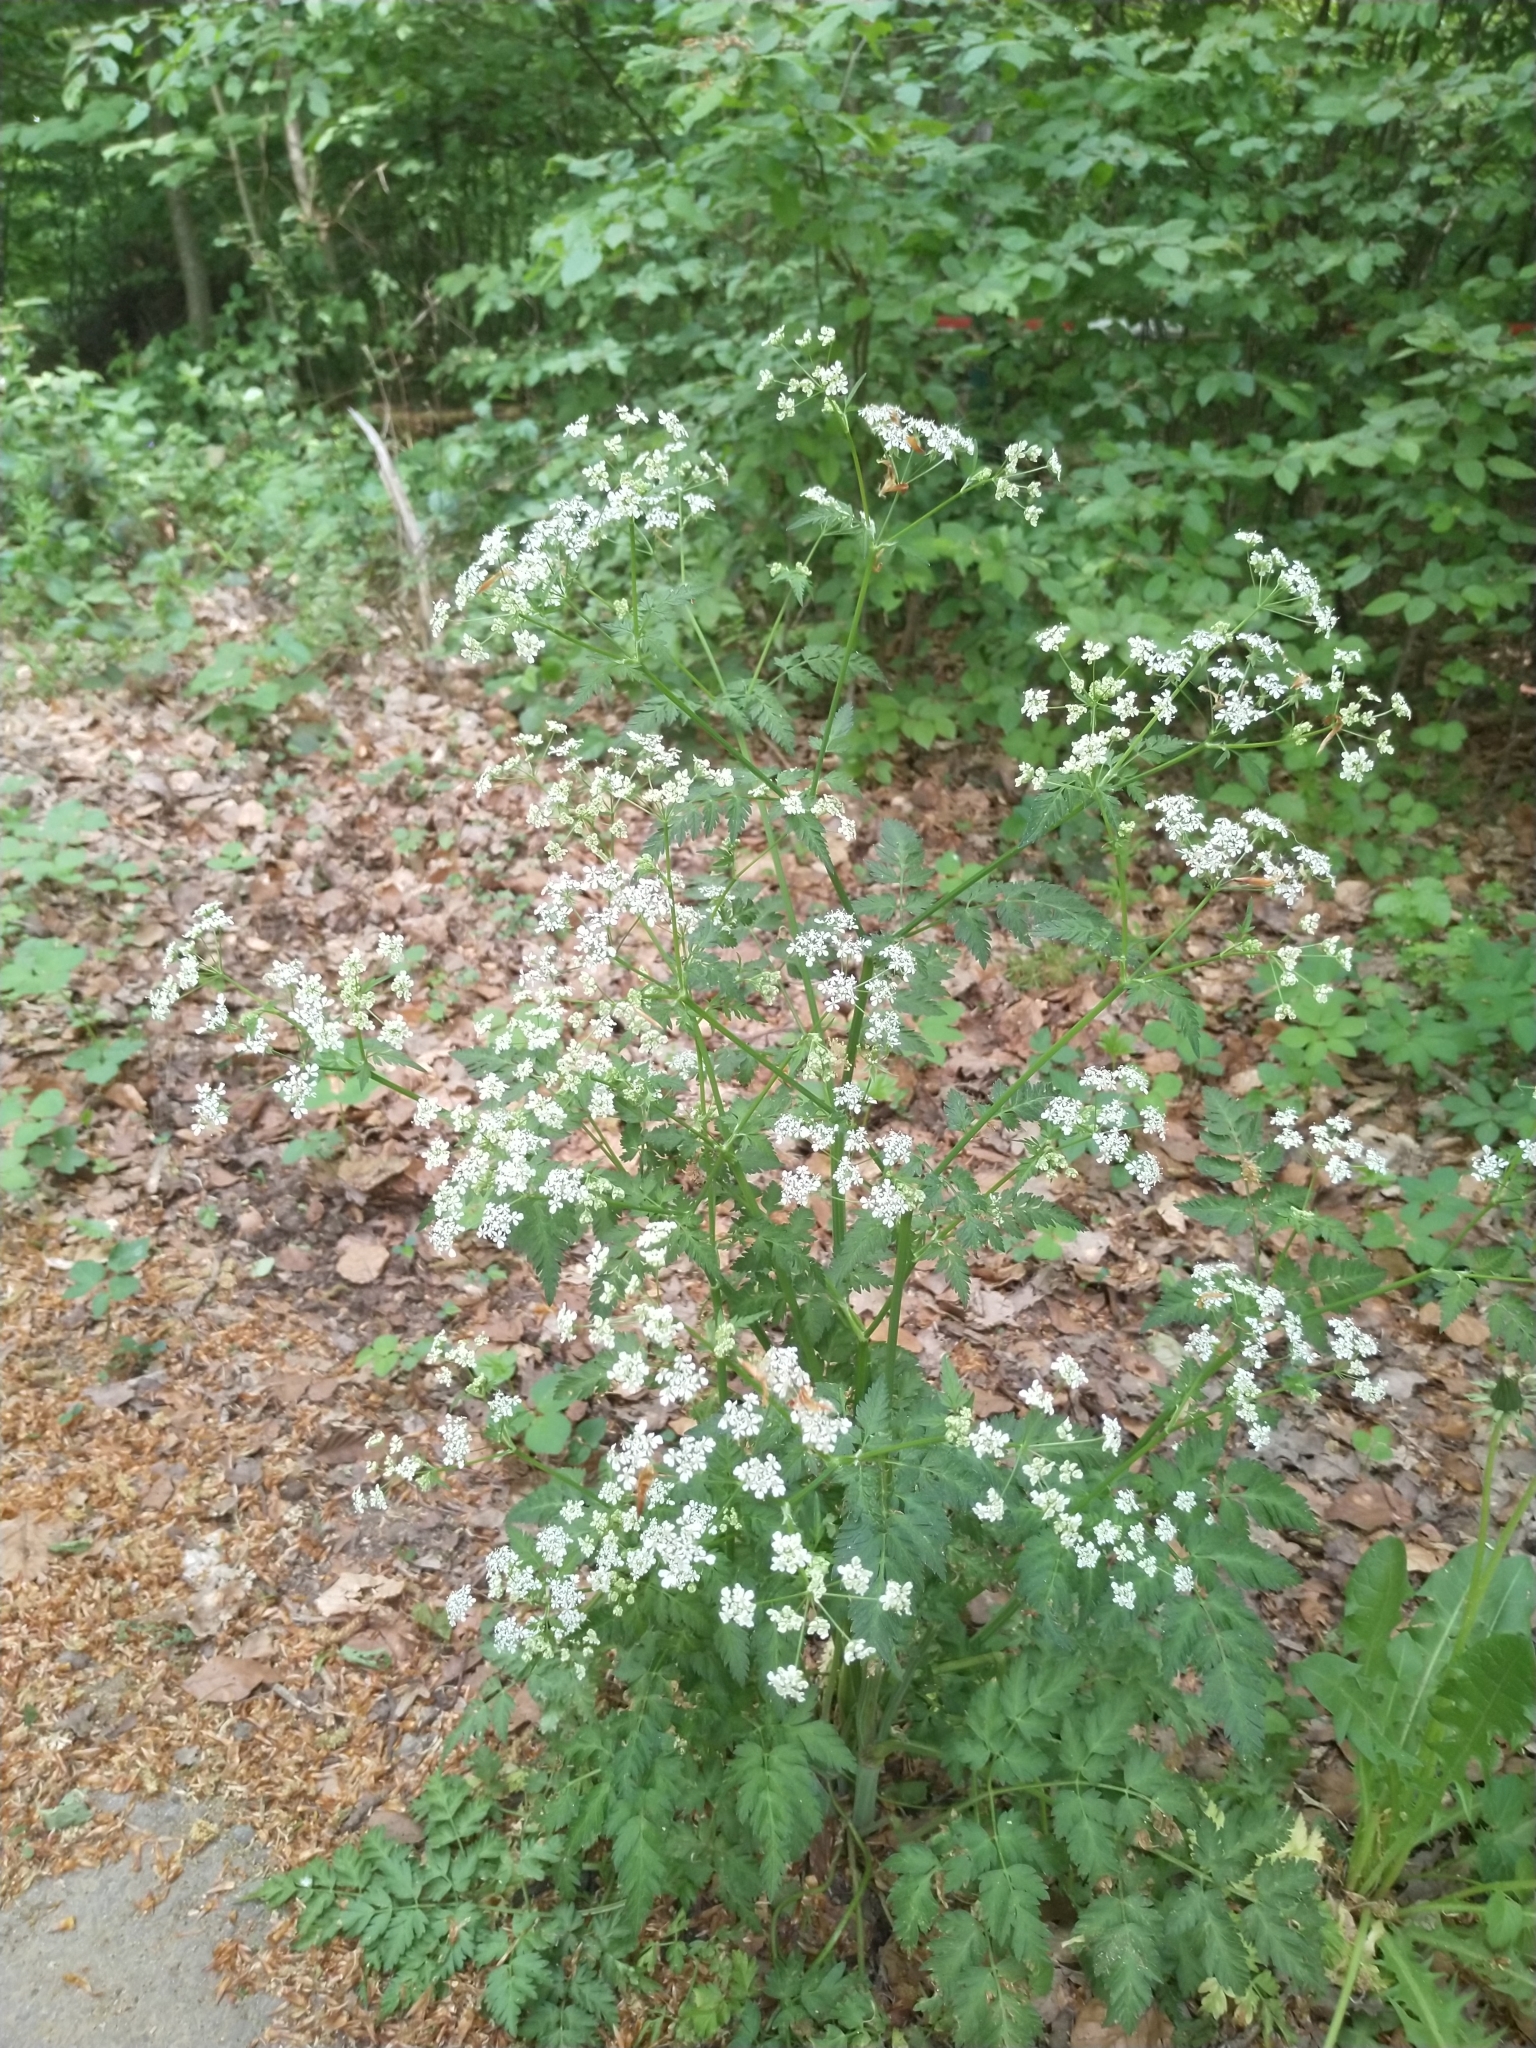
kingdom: Plantae
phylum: Tracheophyta
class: Magnoliopsida
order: Apiales
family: Apiaceae
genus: Anthriscus
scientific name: Anthriscus sylvestris
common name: Cow parsley
